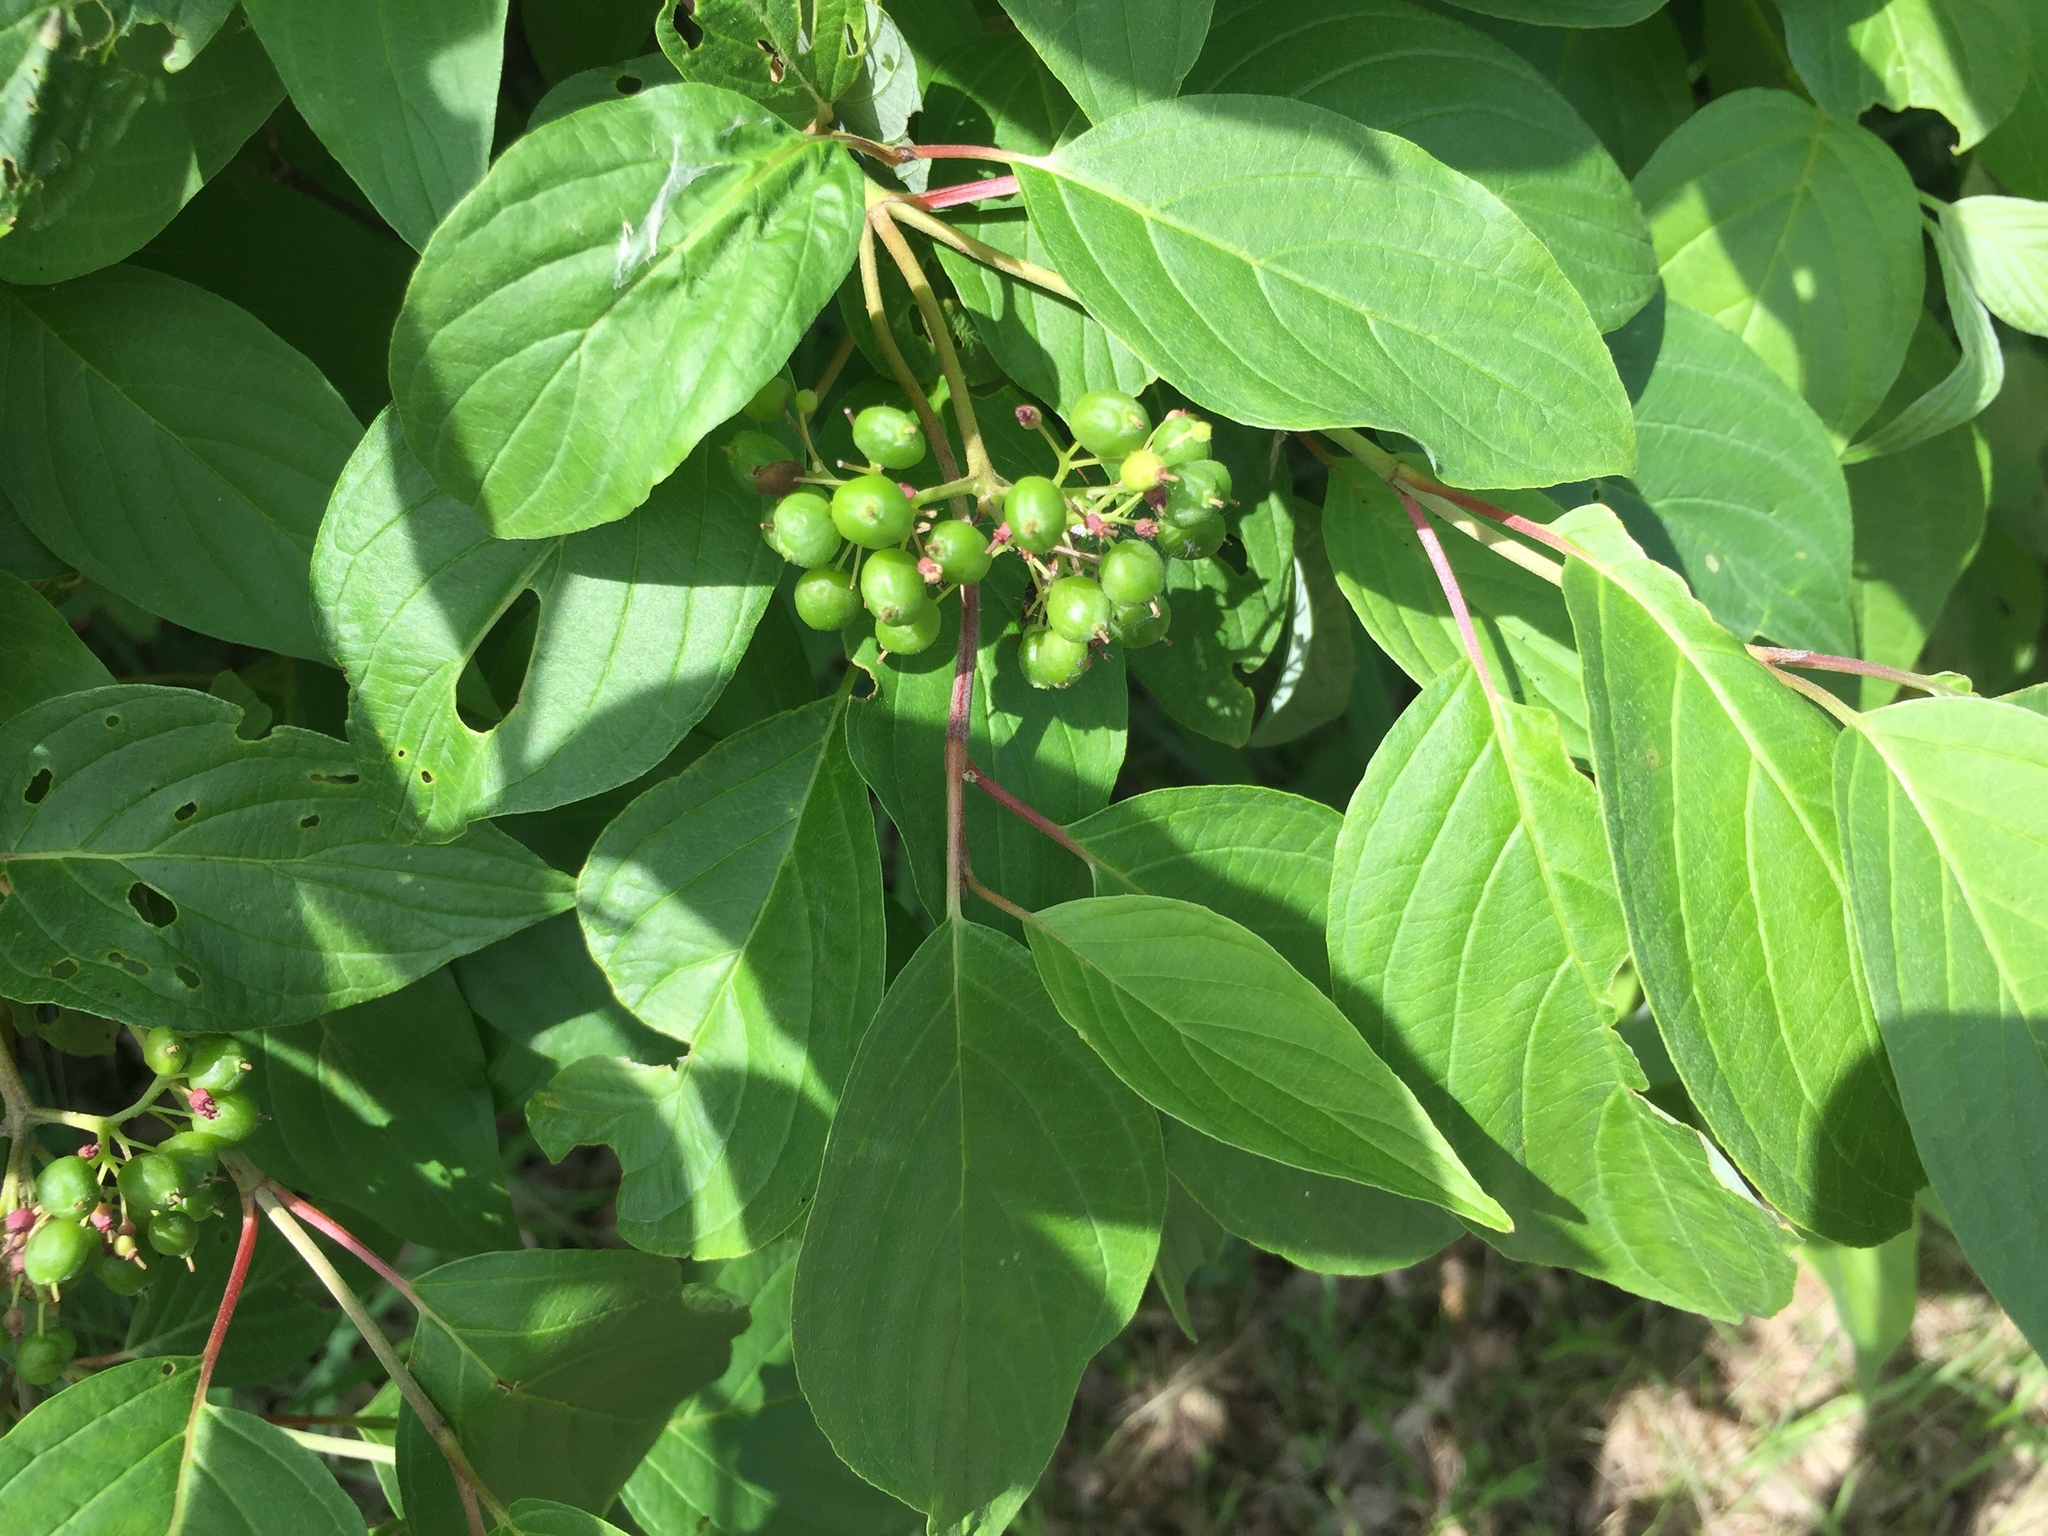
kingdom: Plantae
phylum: Tracheophyta
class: Magnoliopsida
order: Cornales
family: Cornaceae
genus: Cornus
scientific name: Cornus sericea
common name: Red-osier dogwood
